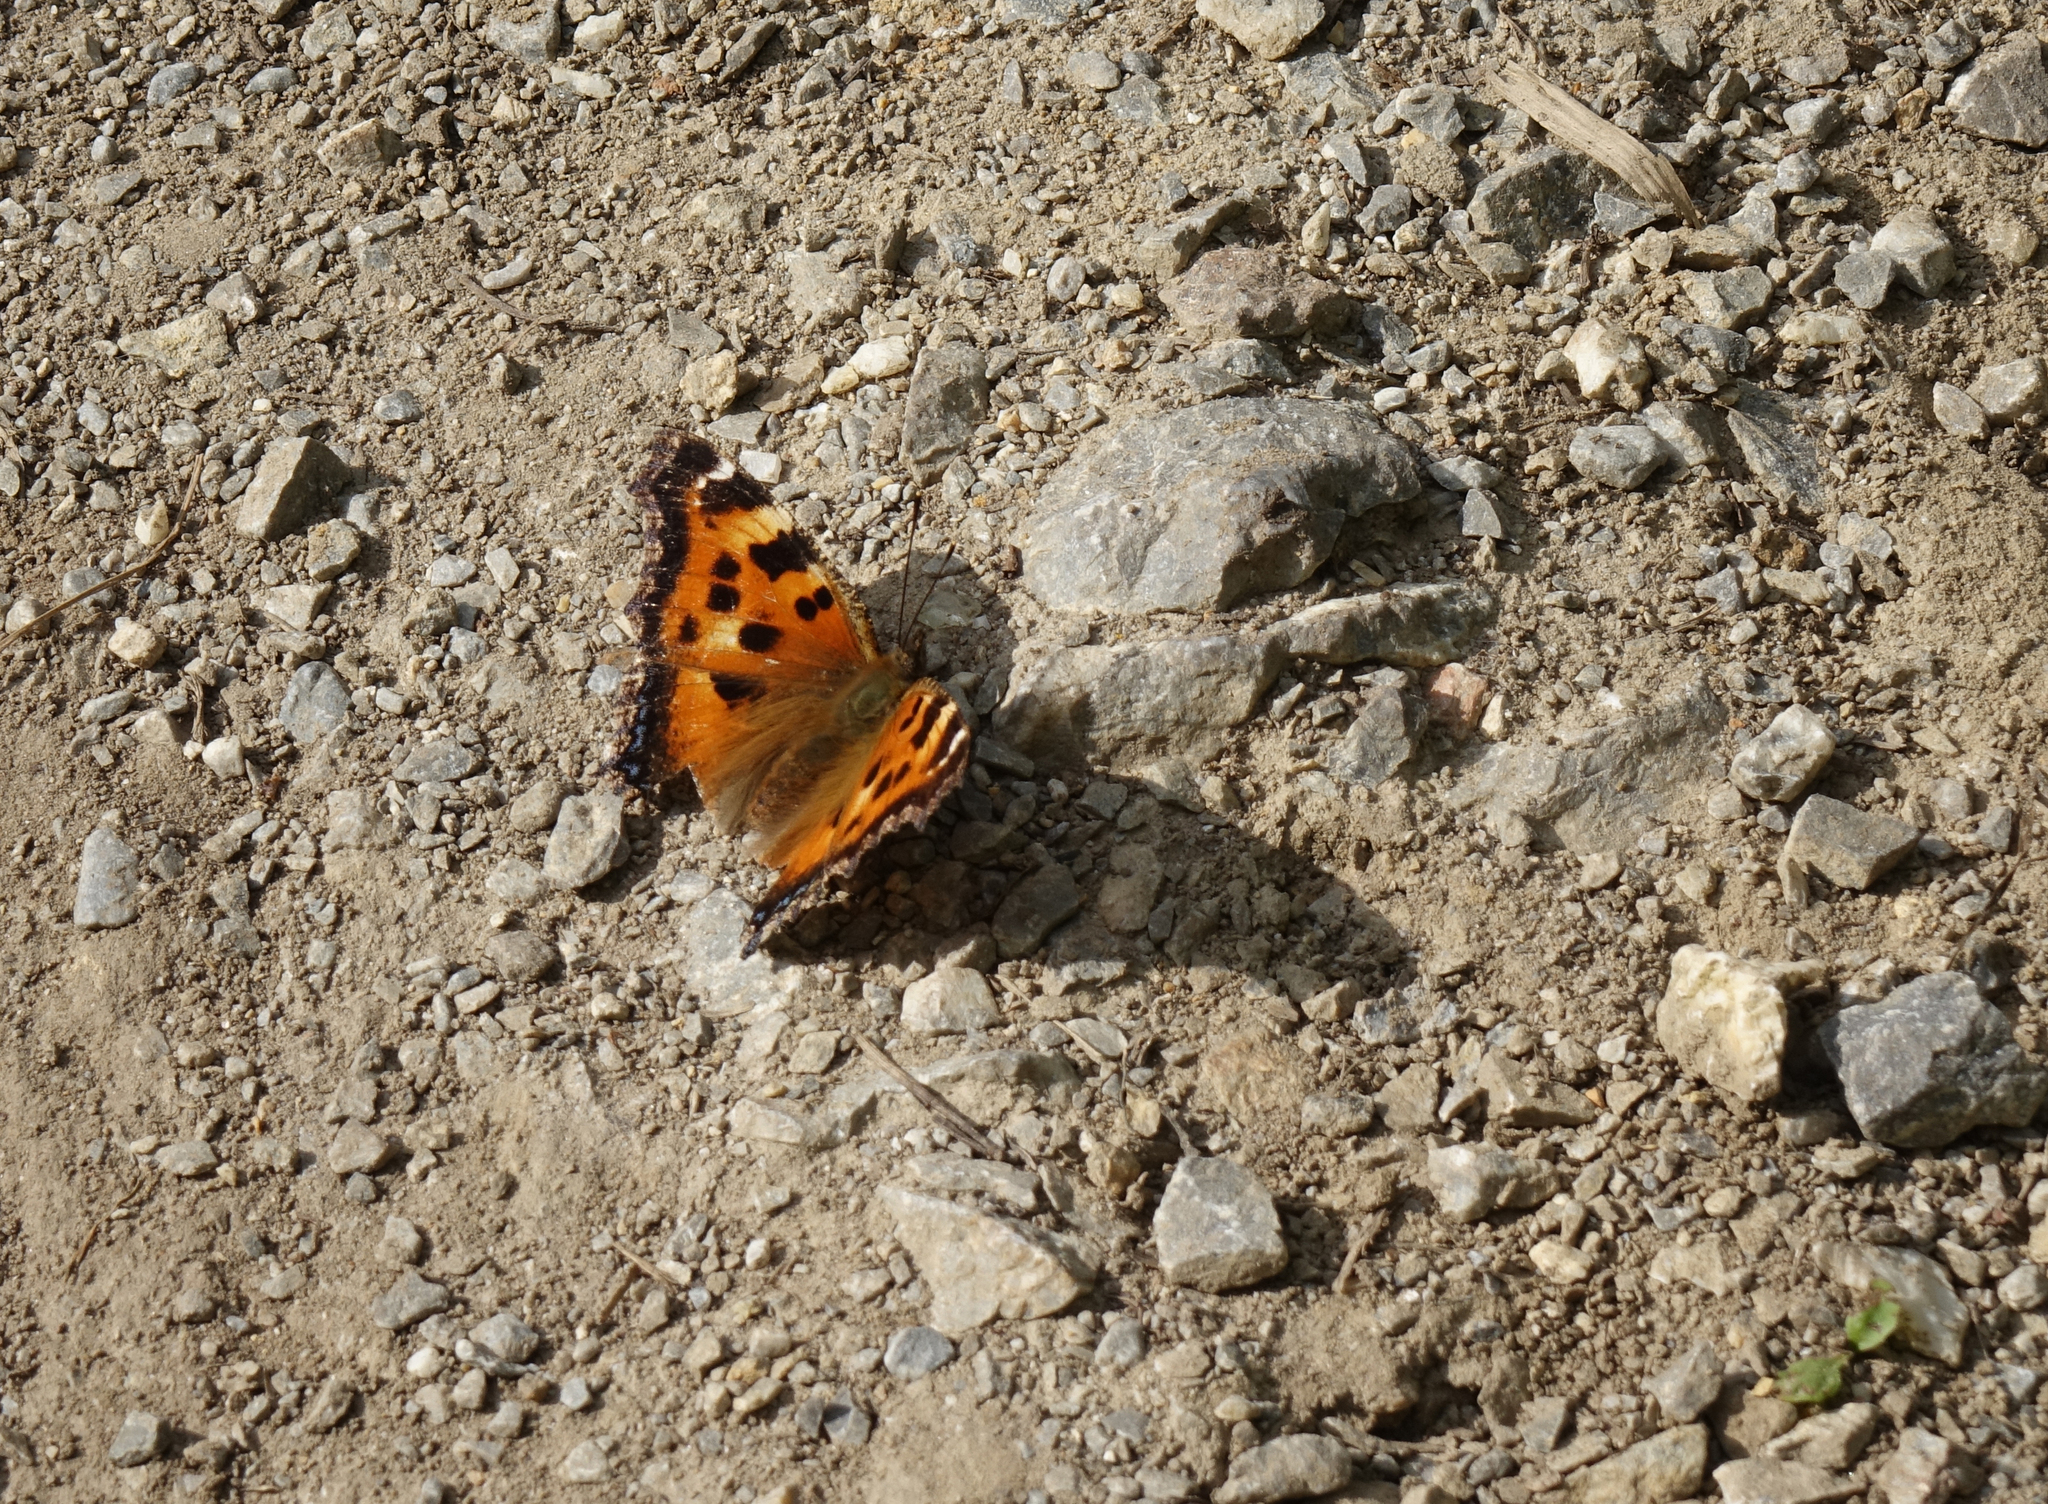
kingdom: Animalia
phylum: Arthropoda
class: Insecta
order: Lepidoptera
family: Nymphalidae
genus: Nymphalis
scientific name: Nymphalis xanthomelas
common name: Scarce tortoiseshell
